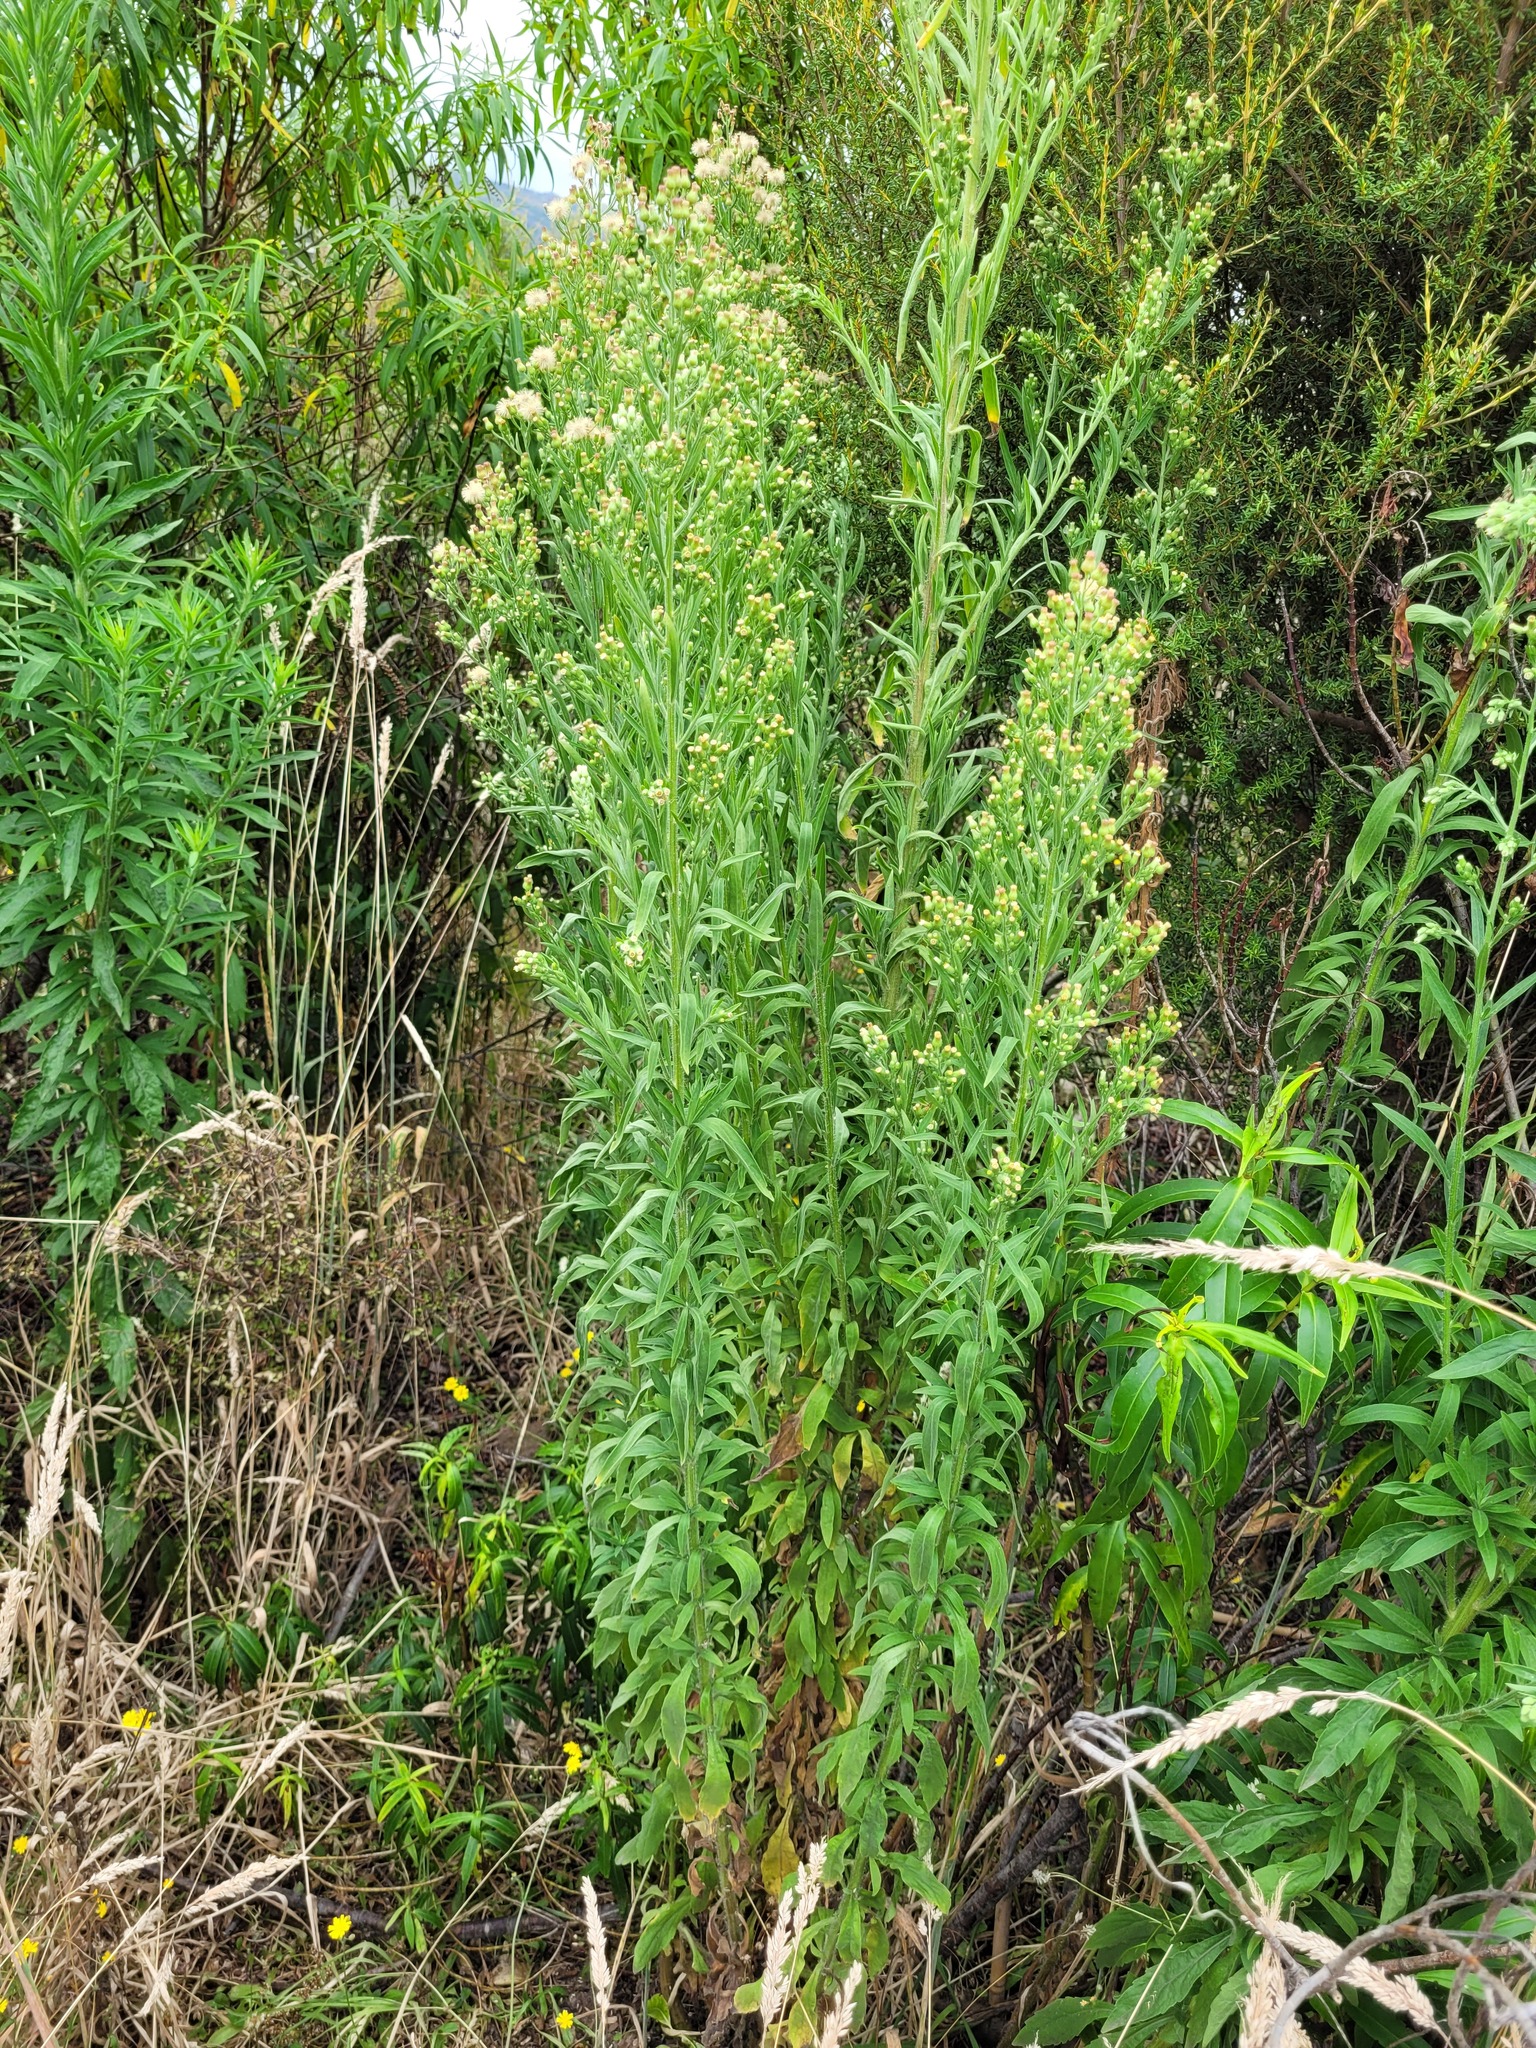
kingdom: Plantae
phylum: Tracheophyta
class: Magnoliopsida
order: Asterales
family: Asteraceae
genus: Erigeron
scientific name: Erigeron sumatrensis
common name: Daisy
